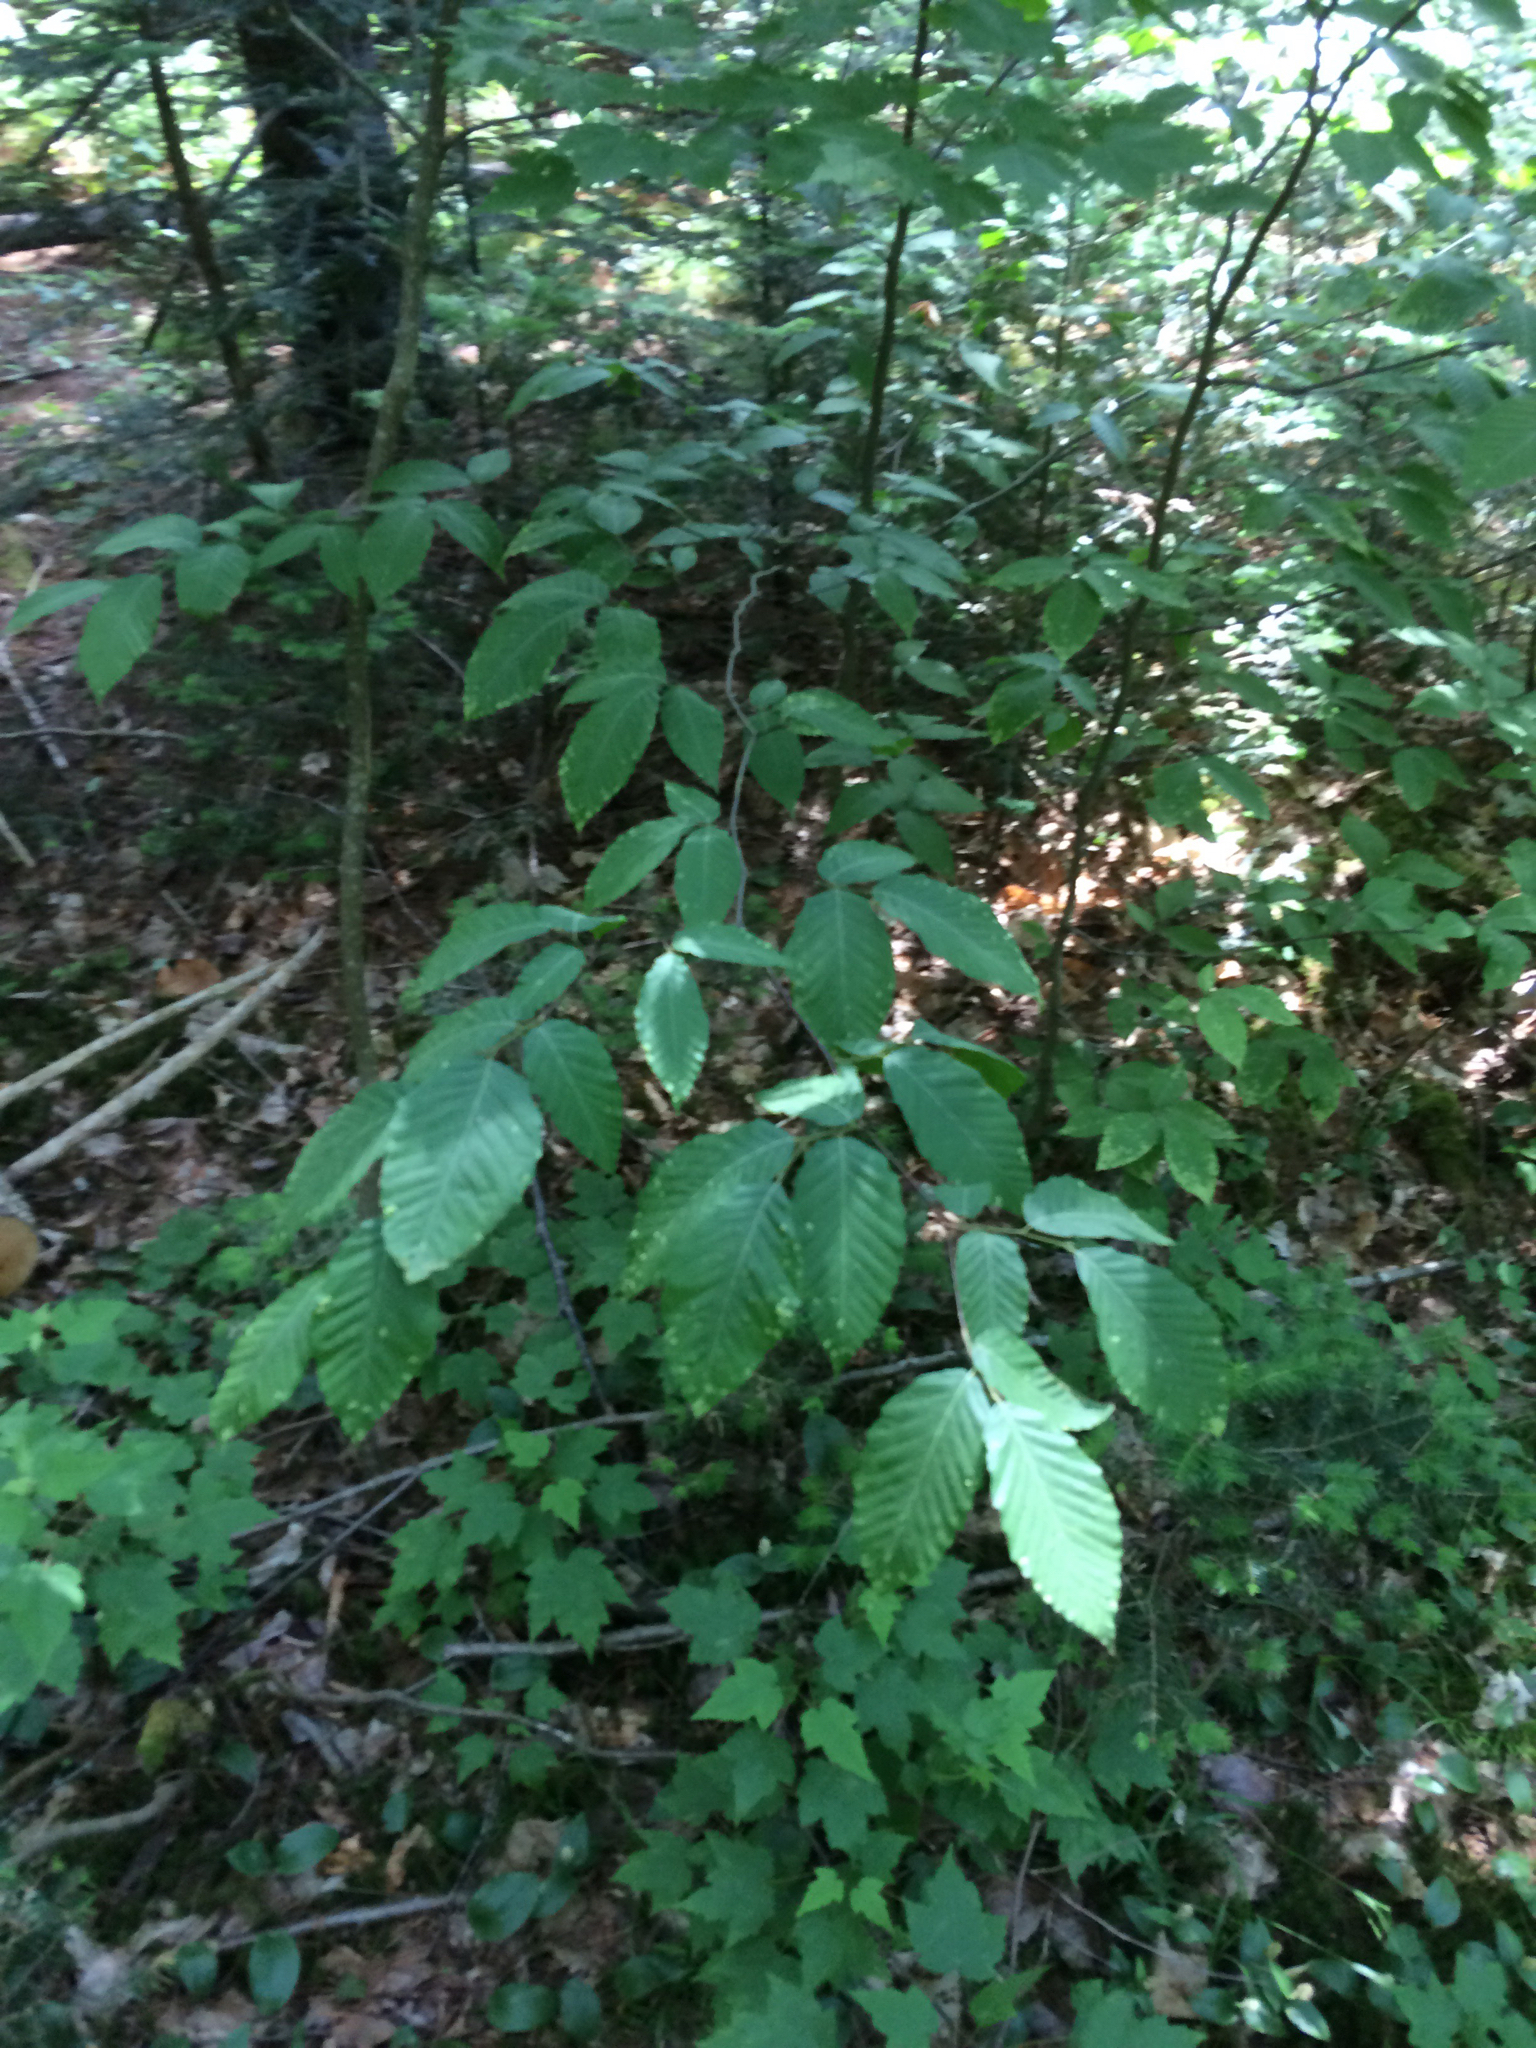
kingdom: Plantae
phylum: Tracheophyta
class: Magnoliopsida
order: Fagales
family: Fagaceae
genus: Fagus
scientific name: Fagus grandifolia
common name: American beech
